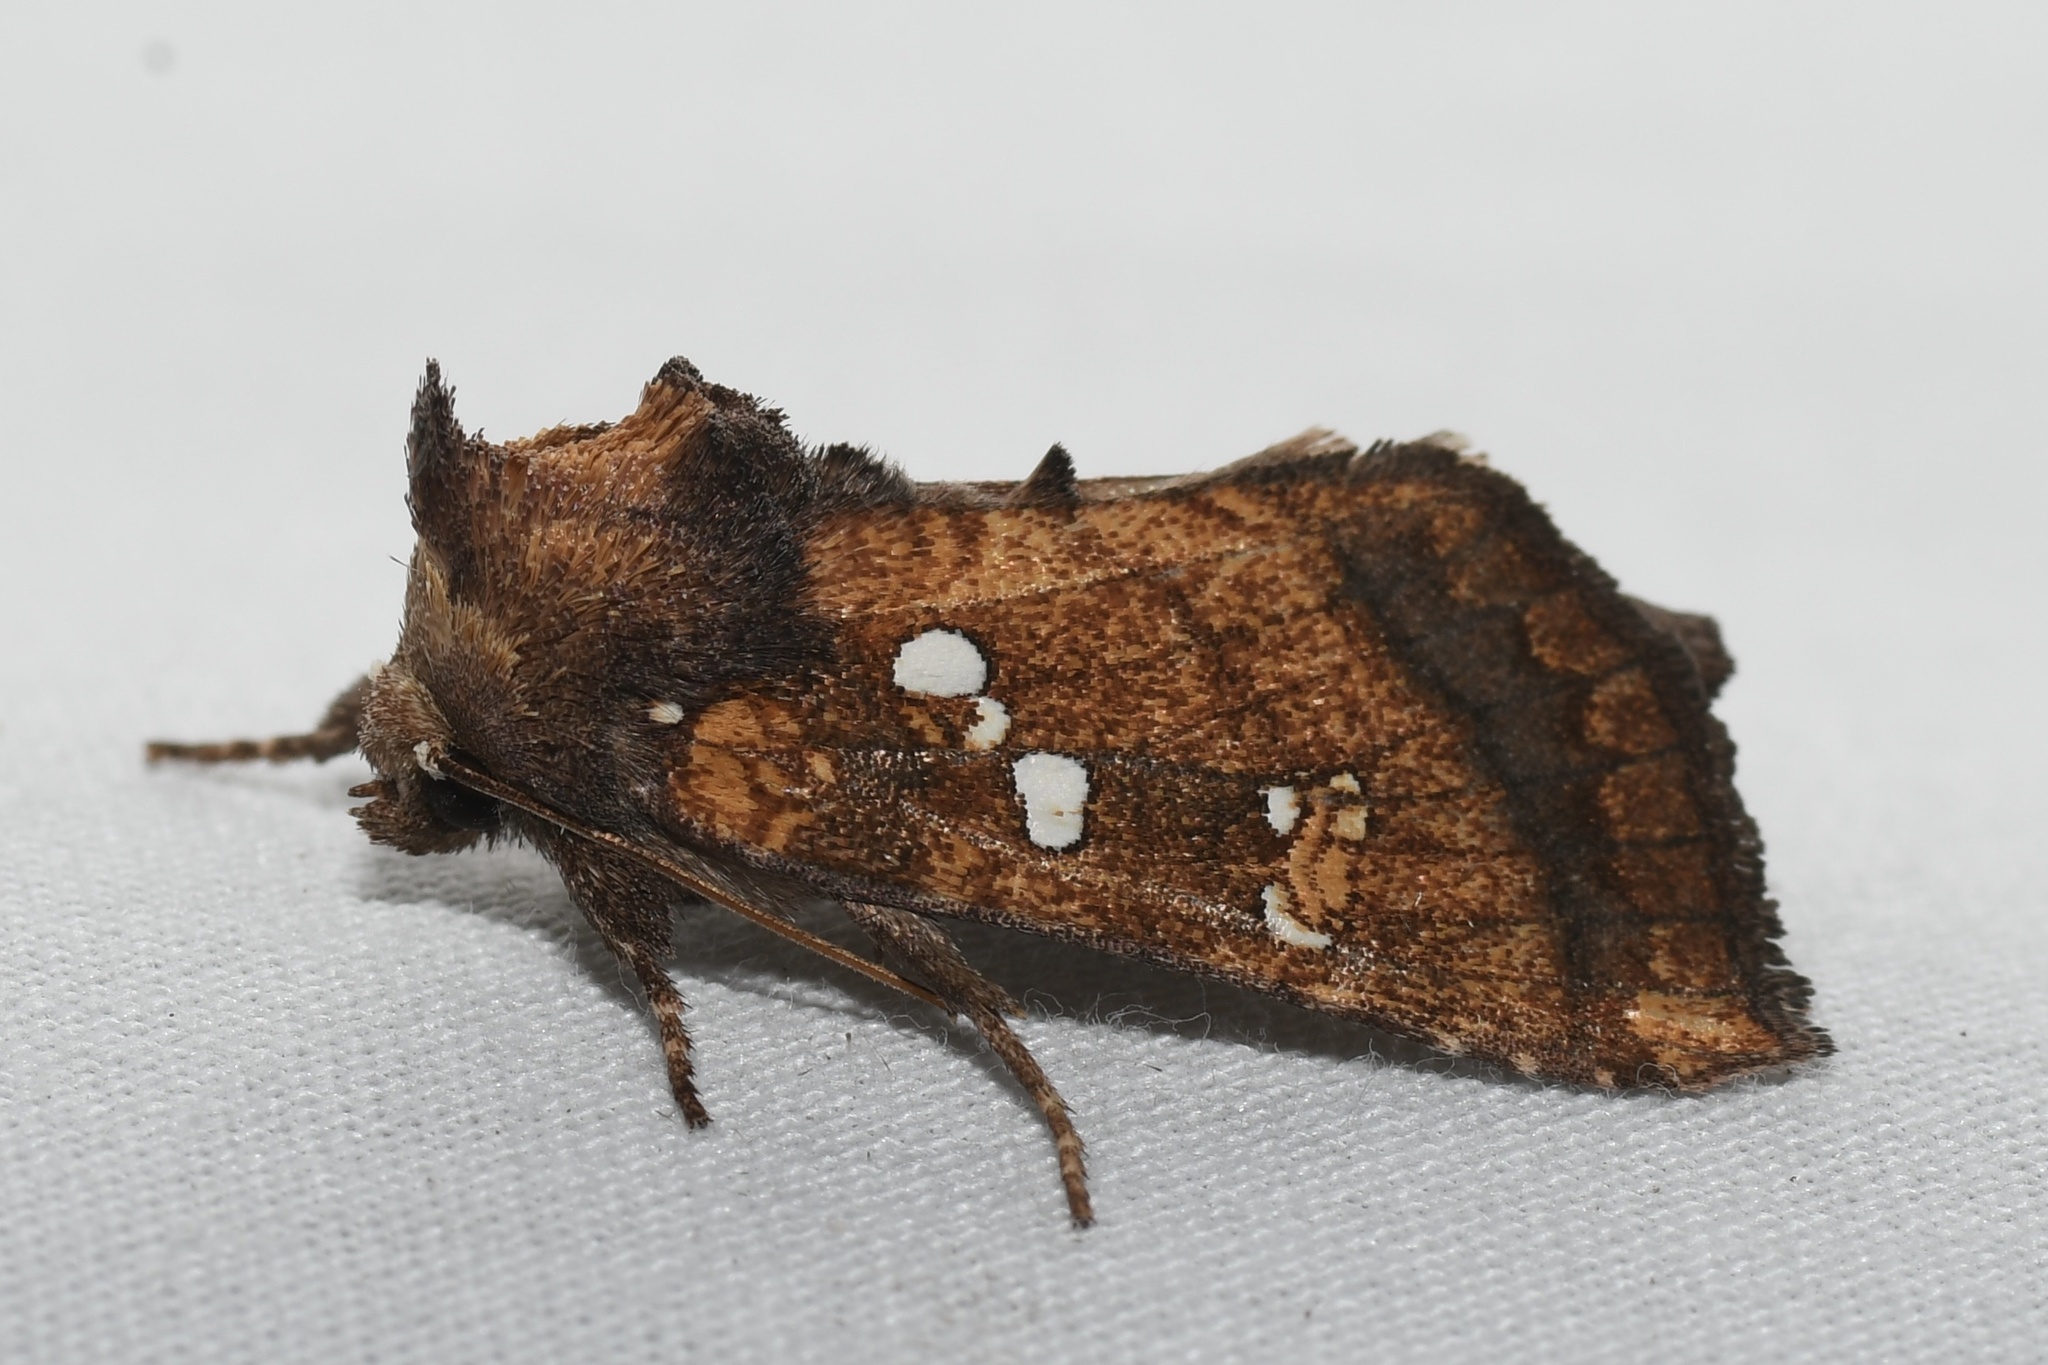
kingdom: Animalia
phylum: Arthropoda
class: Insecta
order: Lepidoptera
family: Noctuidae
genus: Papaipema
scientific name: Papaipema arctivorens
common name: Northern burdock borer moth
